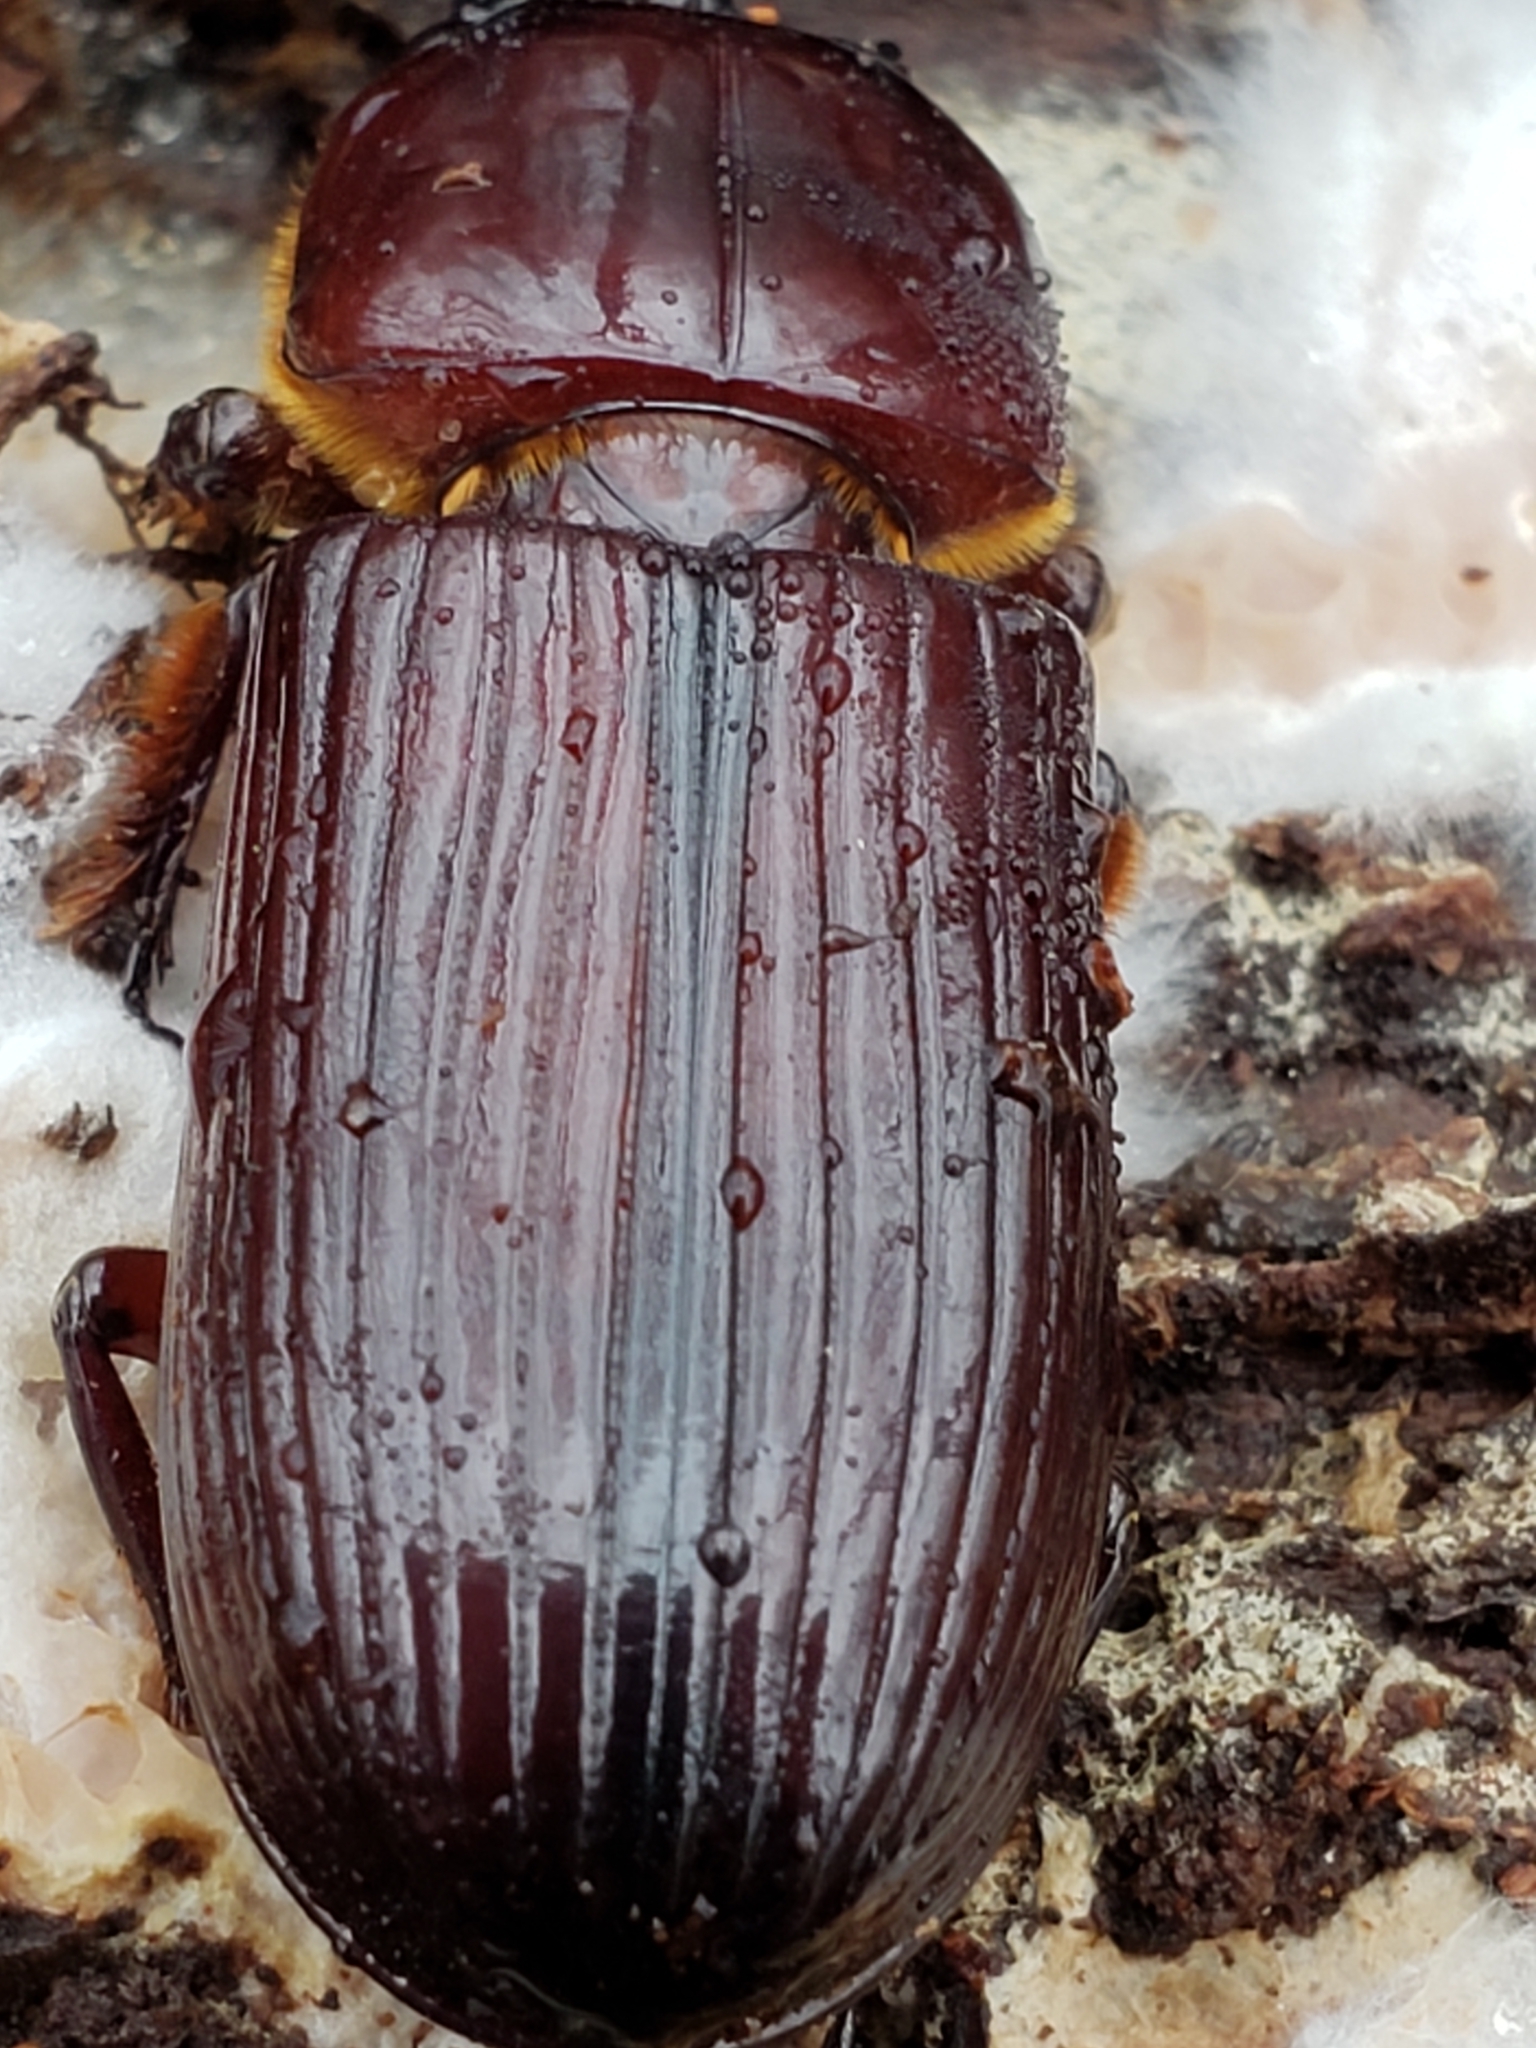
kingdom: Animalia
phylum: Arthropoda
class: Insecta
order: Coleoptera
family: Passalidae
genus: Odontotaenius
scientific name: Odontotaenius disjunctus
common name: Patent leather beetle
